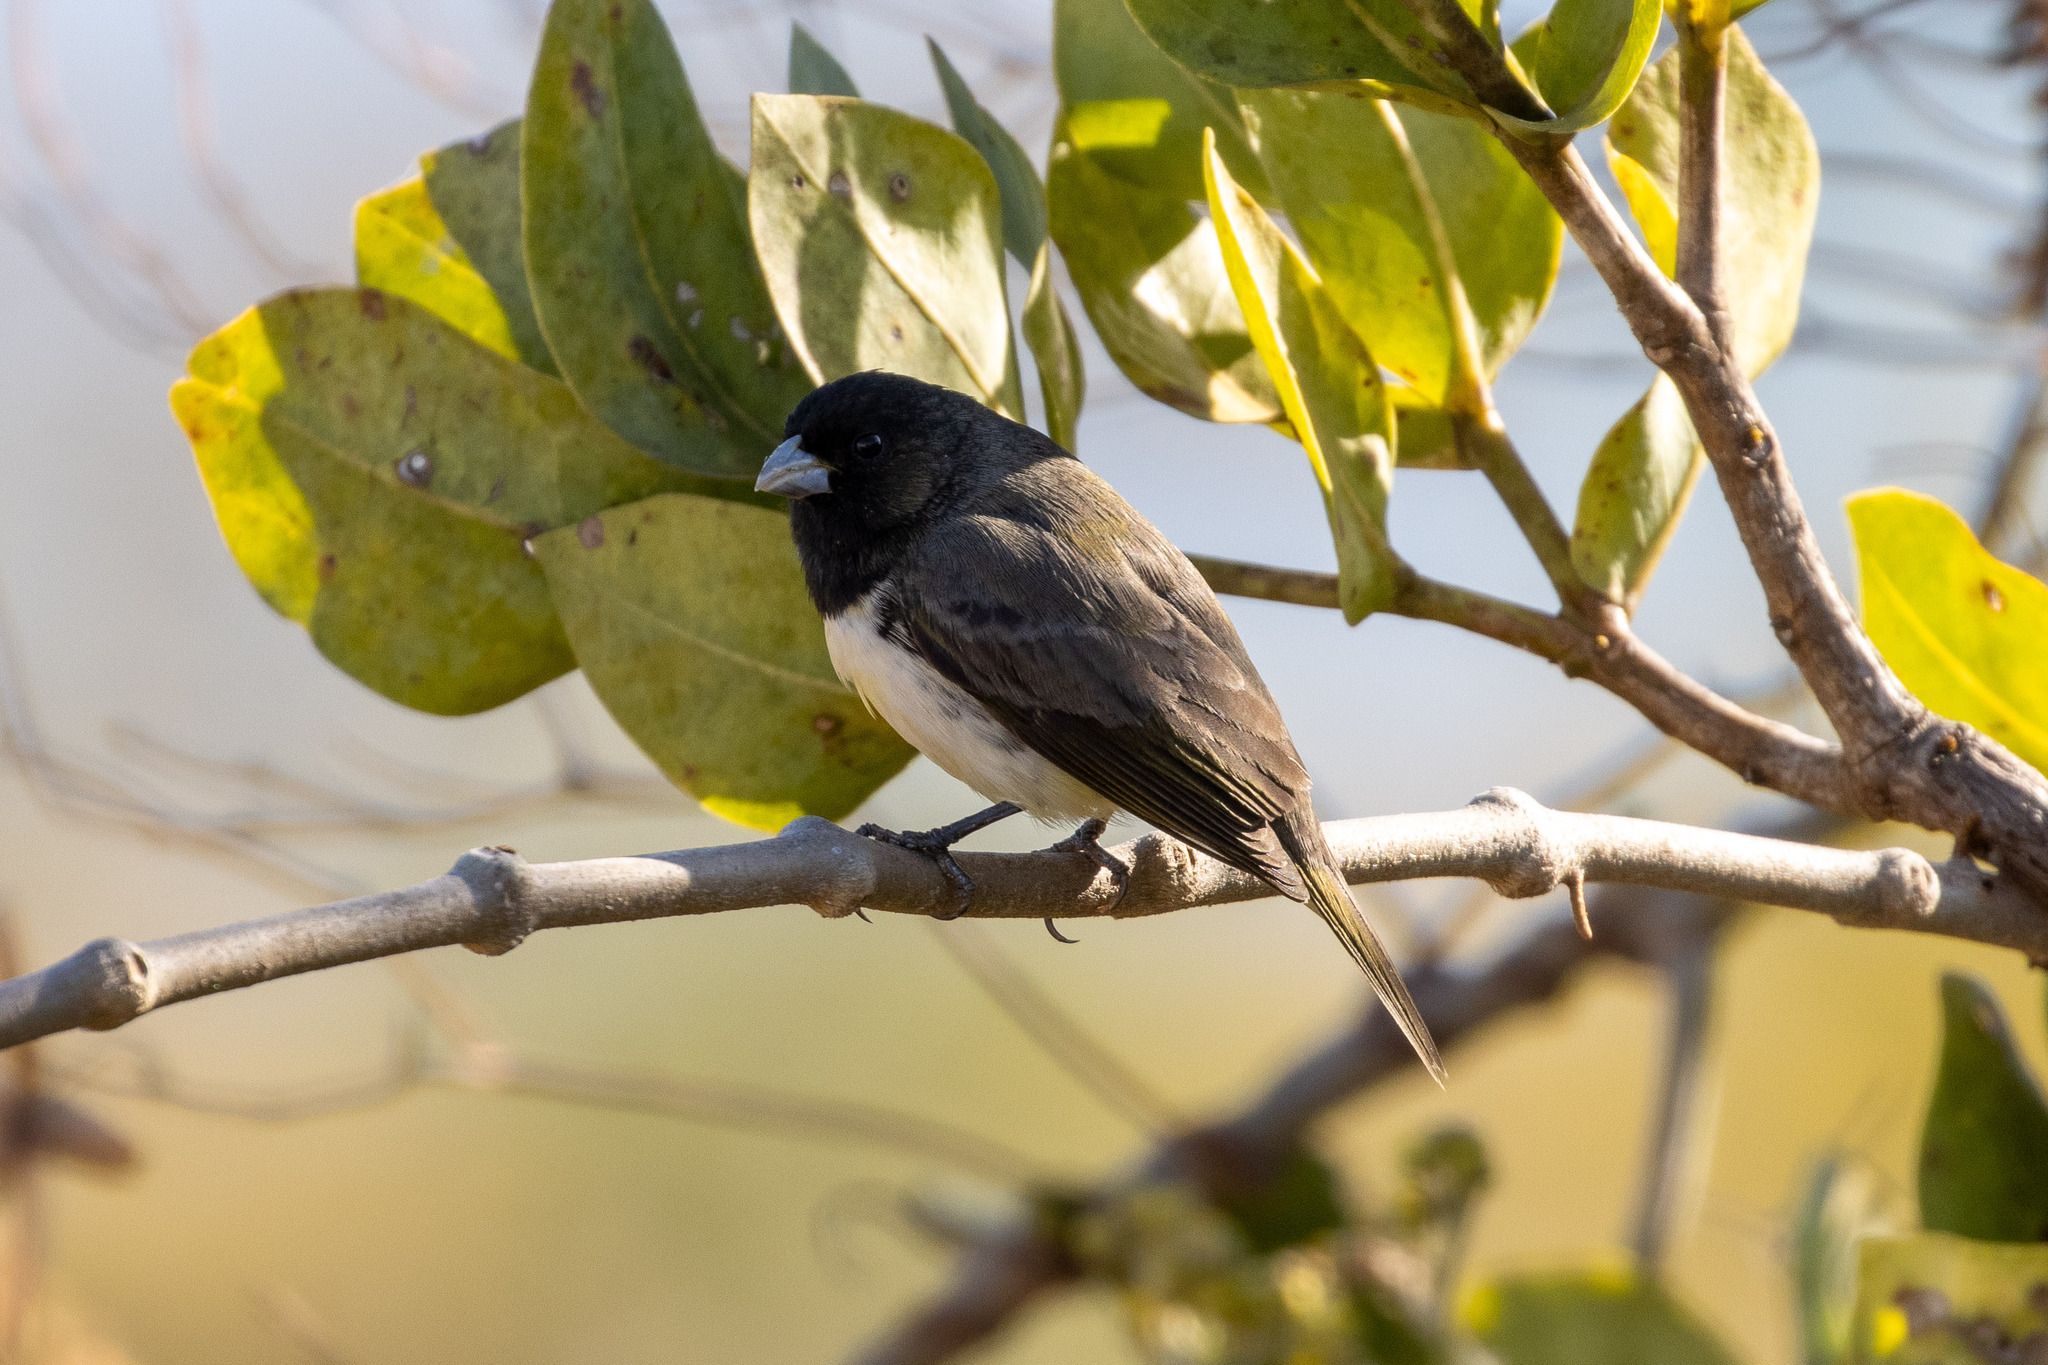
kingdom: Animalia
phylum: Chordata
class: Aves
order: Passeriformes
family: Thraupidae
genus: Sporophila
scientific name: Sporophila nigricollis
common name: Yellow-bellied seedeater
